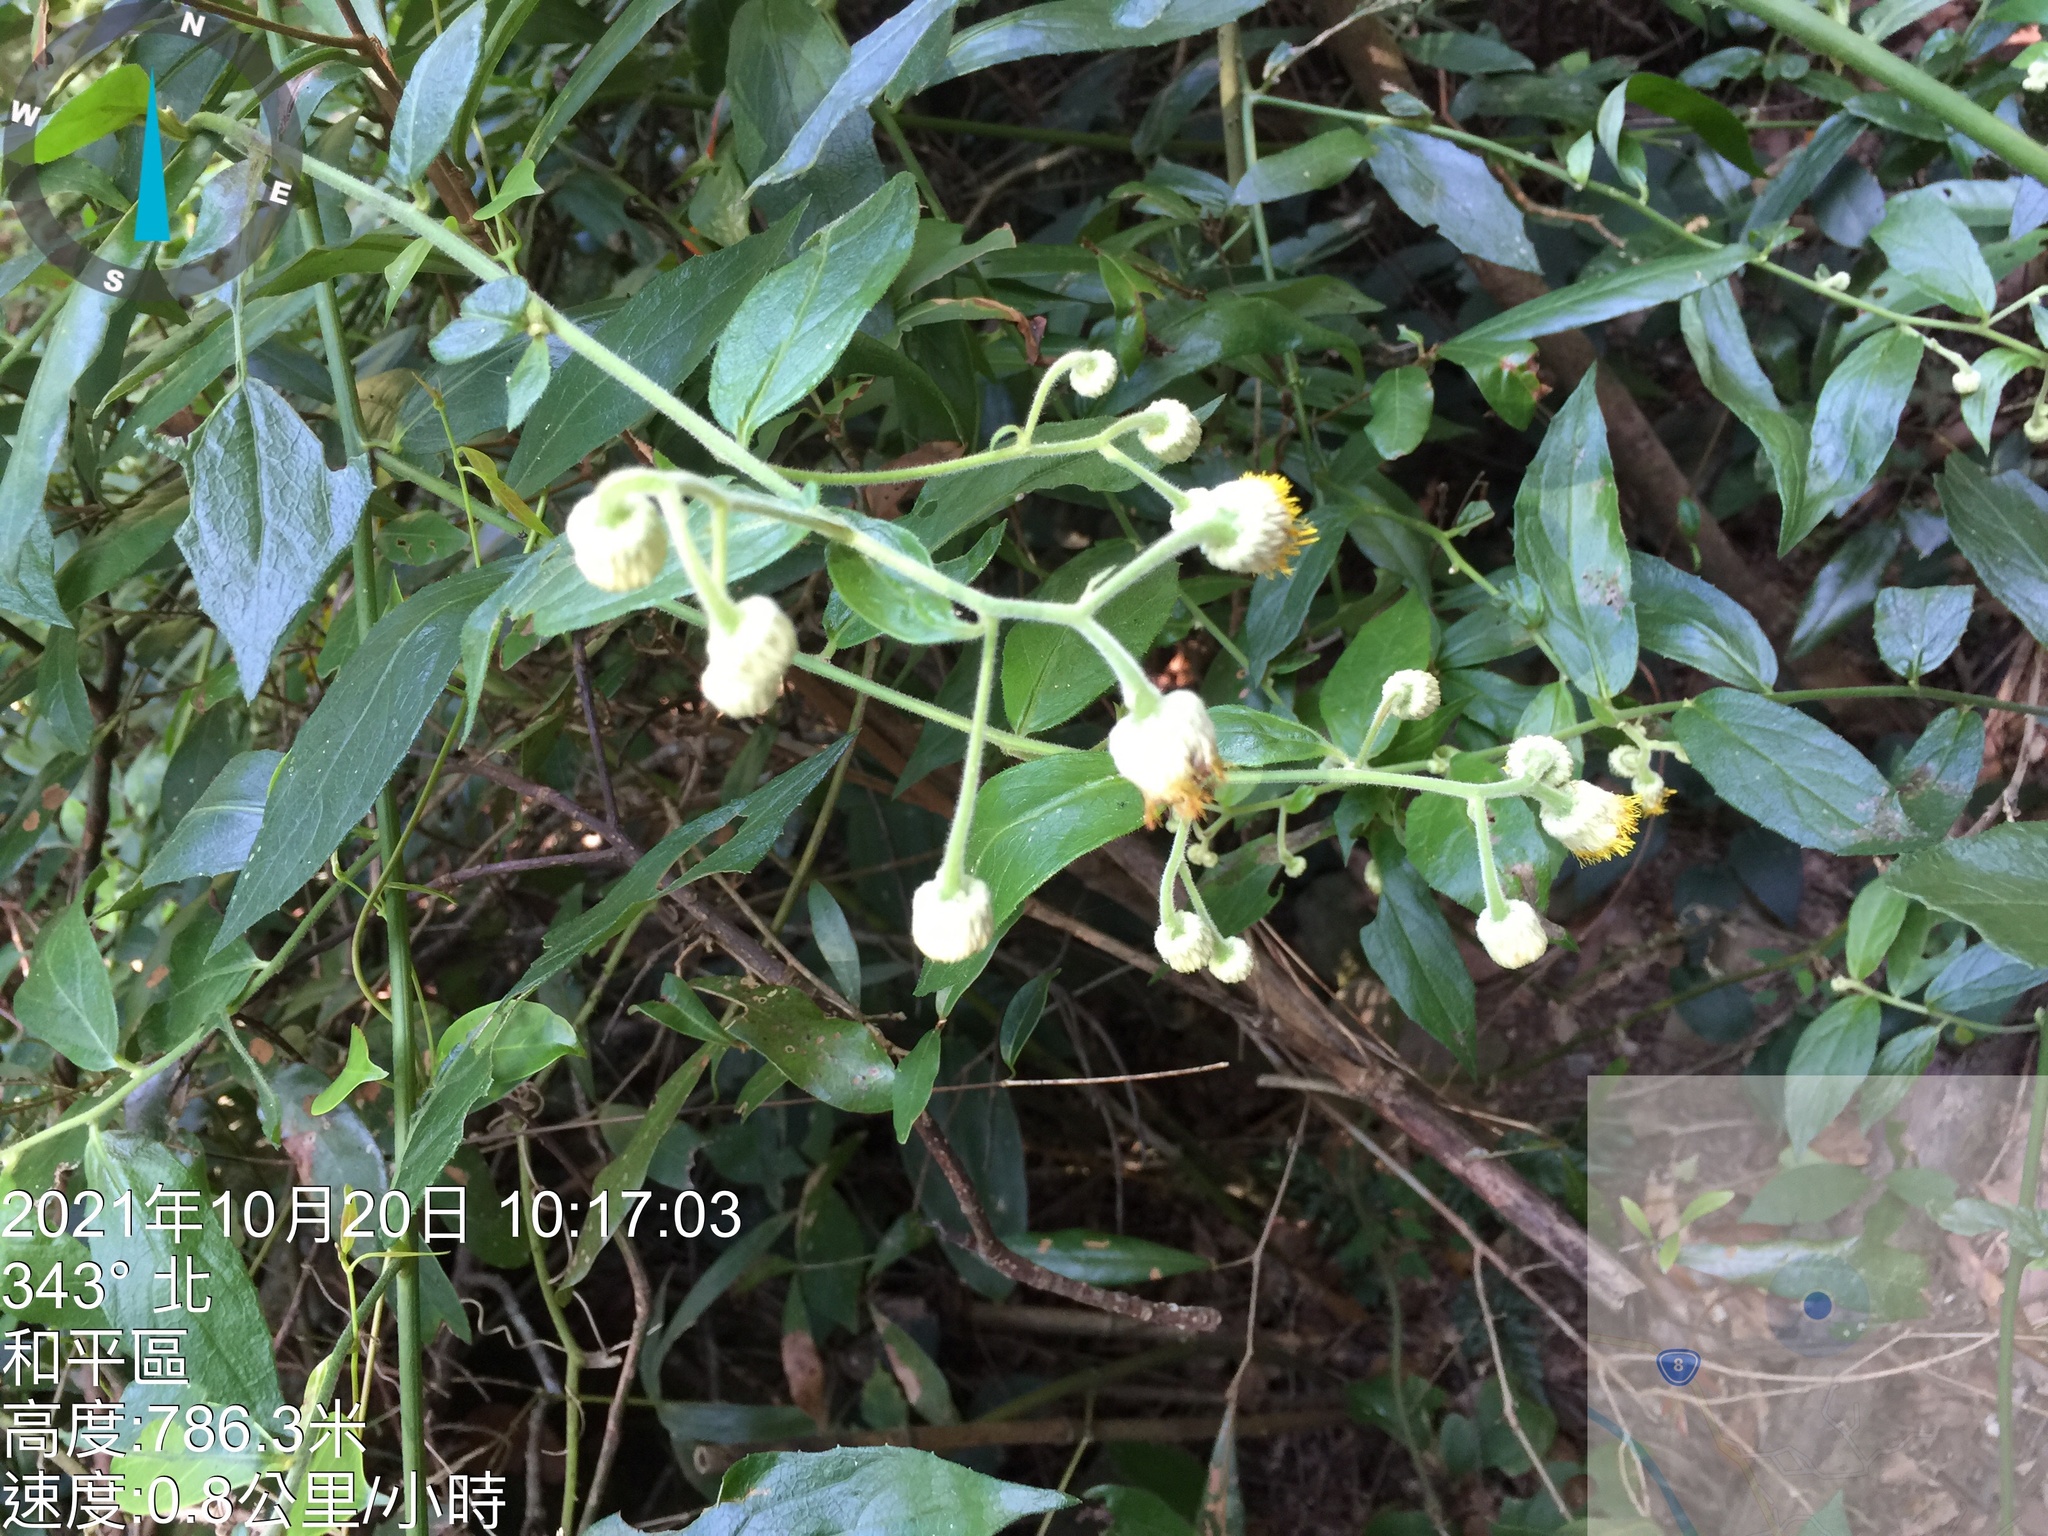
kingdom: Plantae
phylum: Tracheophyta
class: Magnoliopsida
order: Asterales
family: Asteraceae
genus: Blumea
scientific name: Blumea megacephala
